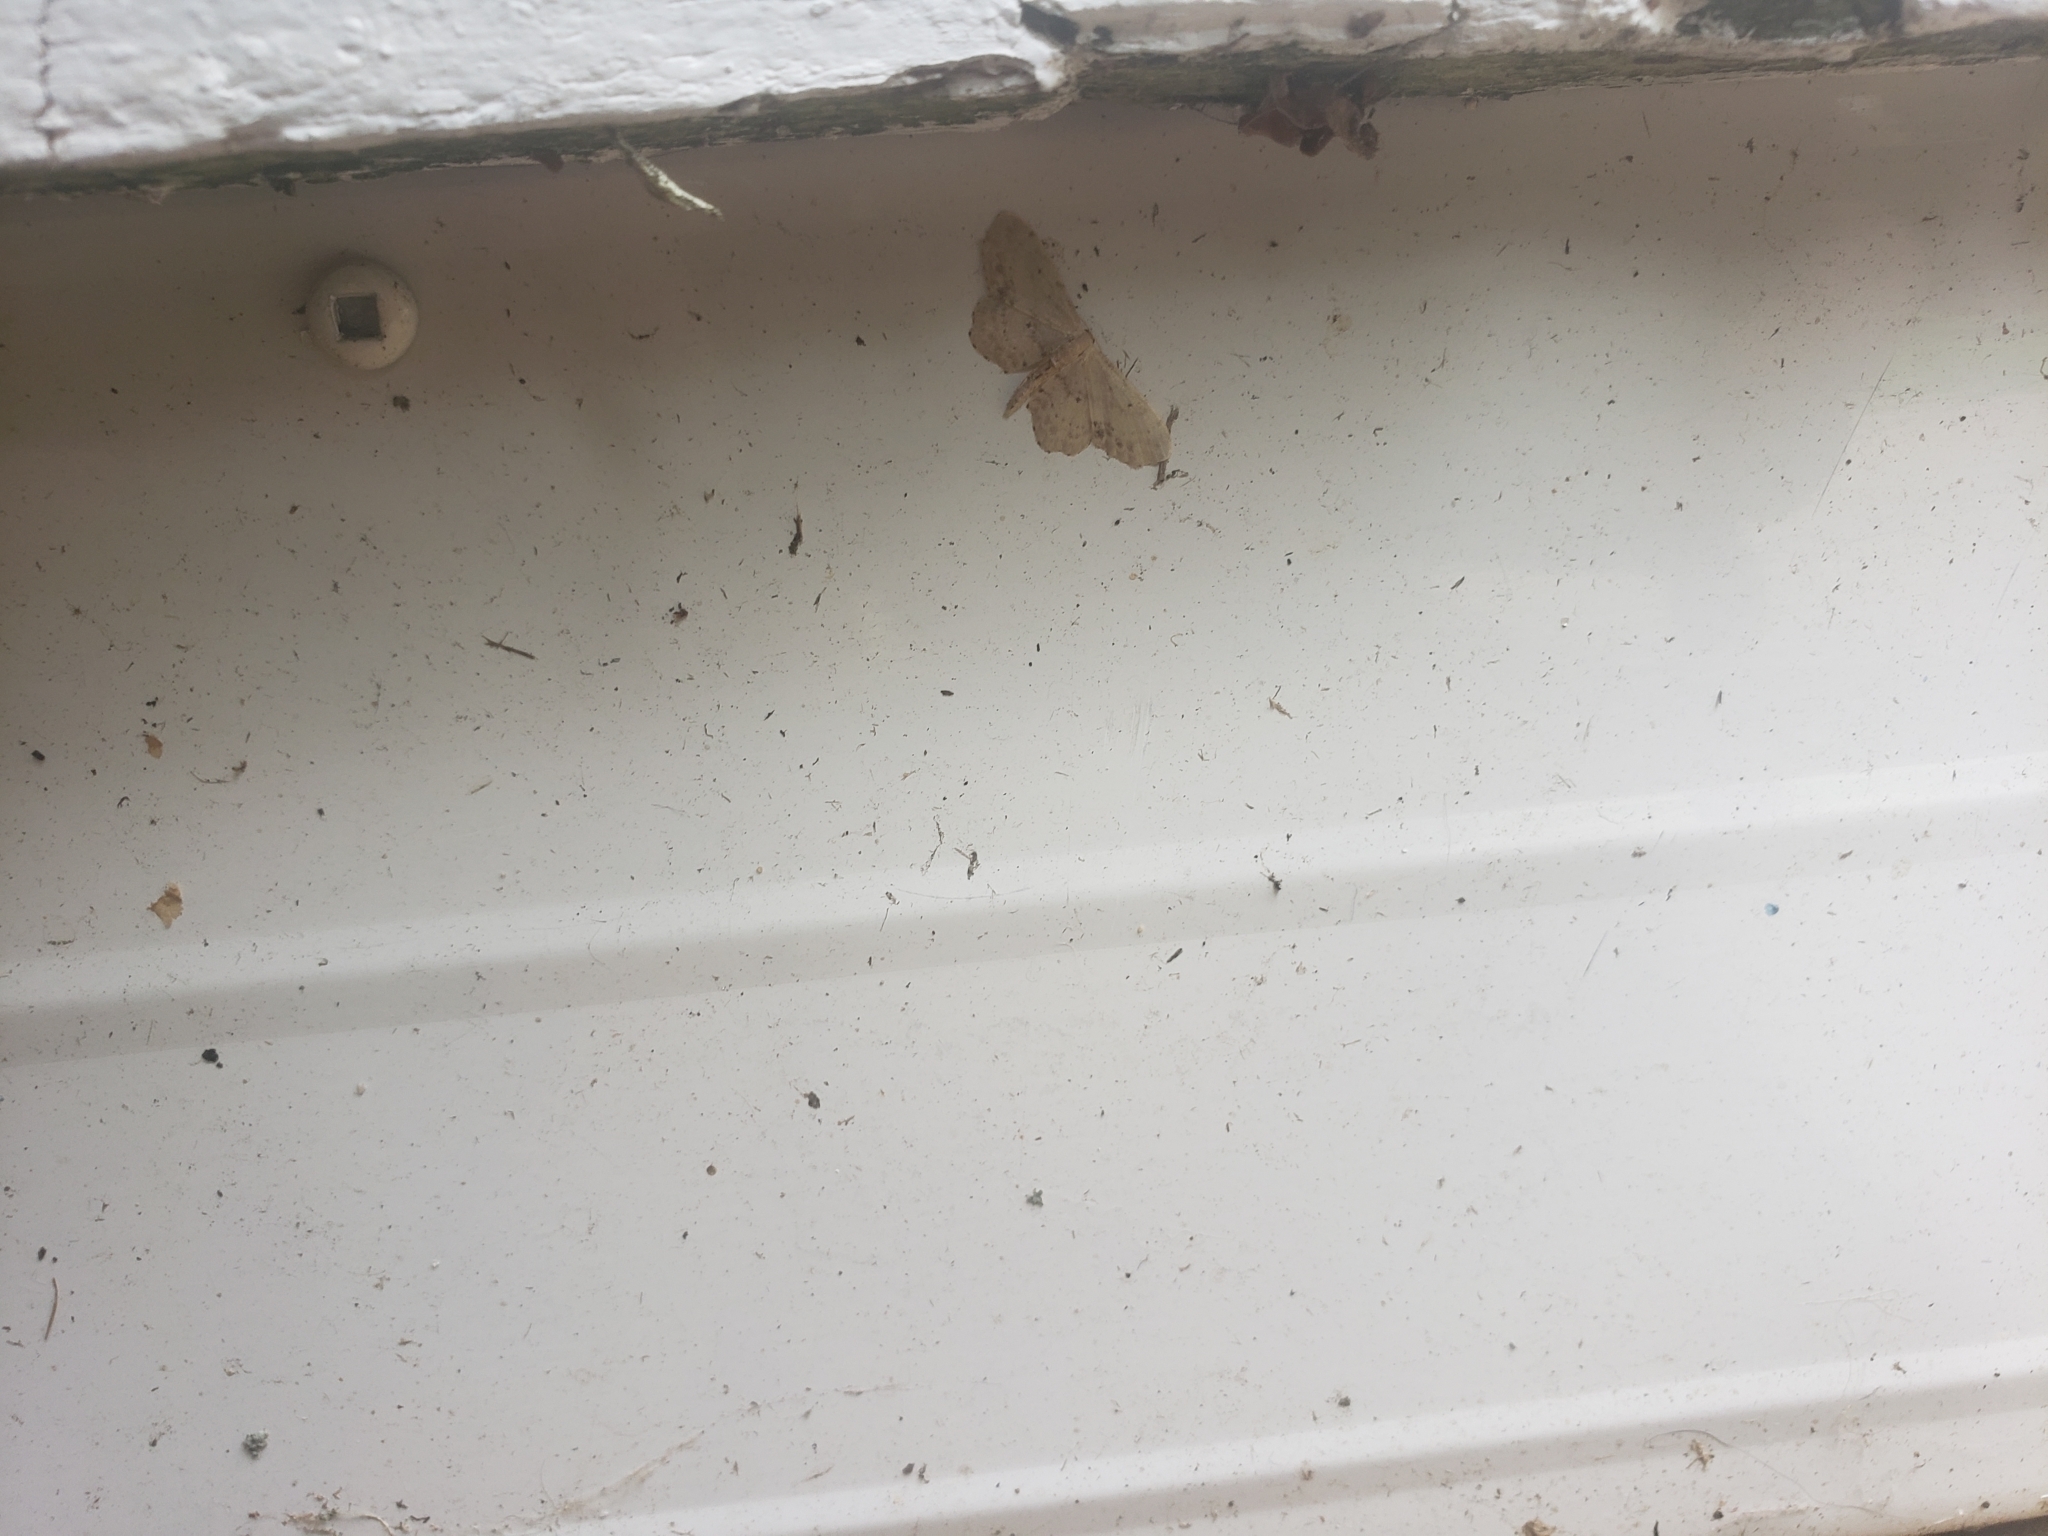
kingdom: Animalia
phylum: Arthropoda
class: Insecta
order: Lepidoptera
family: Geometridae
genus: Idaea
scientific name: Idaea dimidiata
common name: Single-dotted wave
